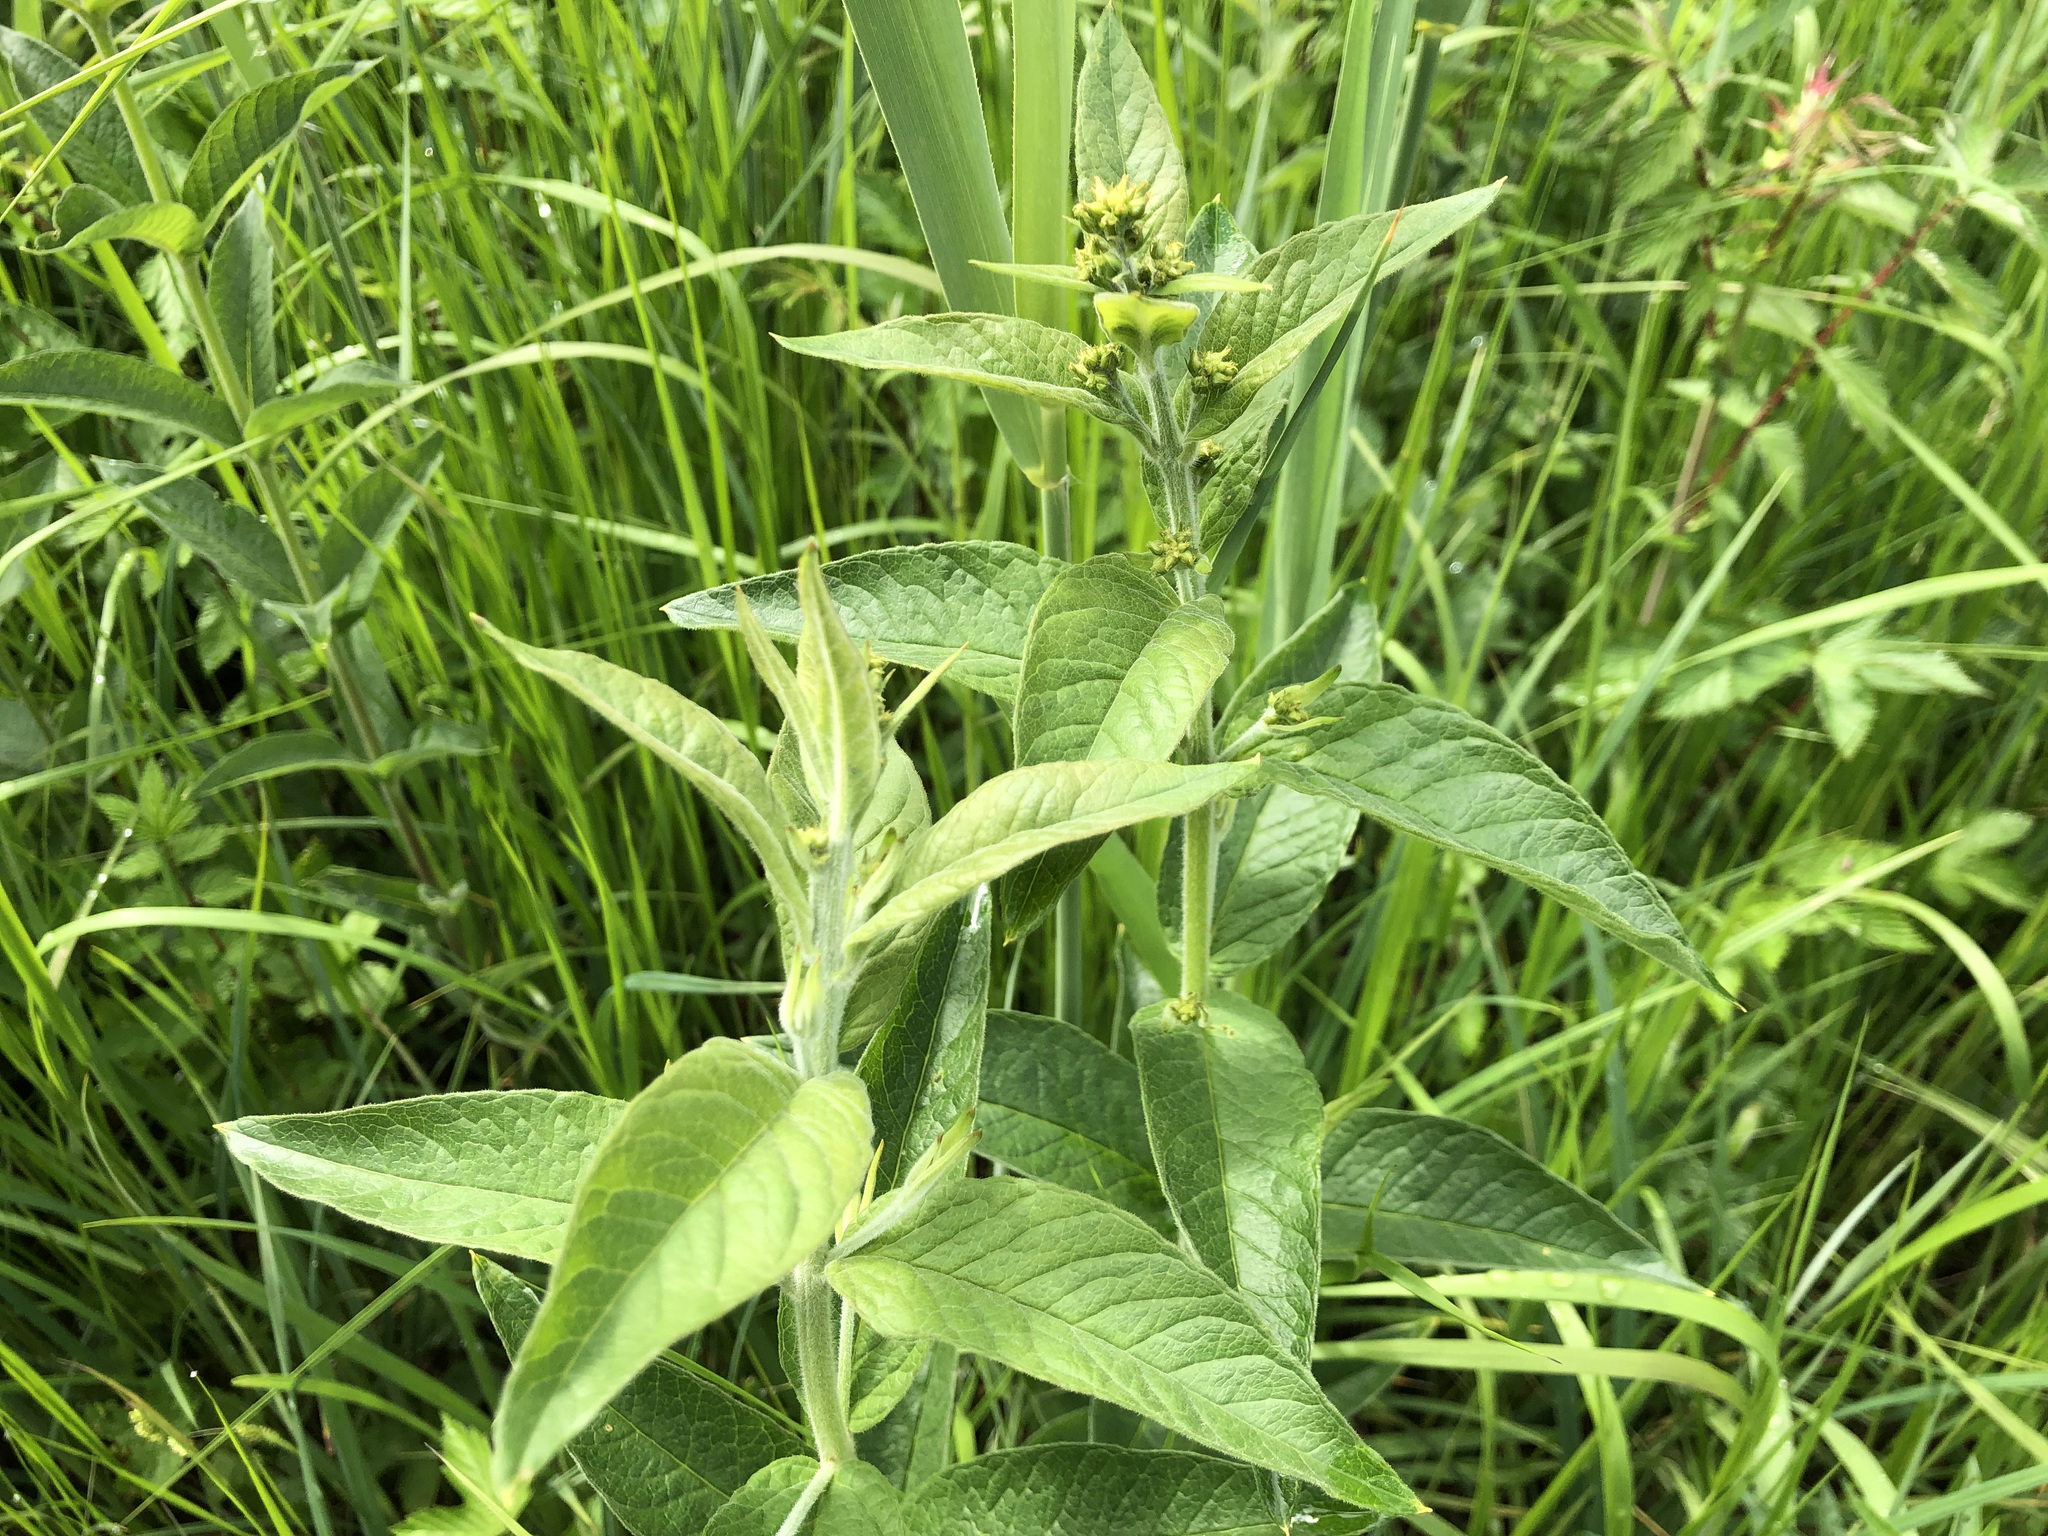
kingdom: Plantae
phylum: Tracheophyta
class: Magnoliopsida
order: Ericales
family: Primulaceae
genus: Lysimachia
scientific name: Lysimachia vulgaris
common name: Yellow loosestrife
